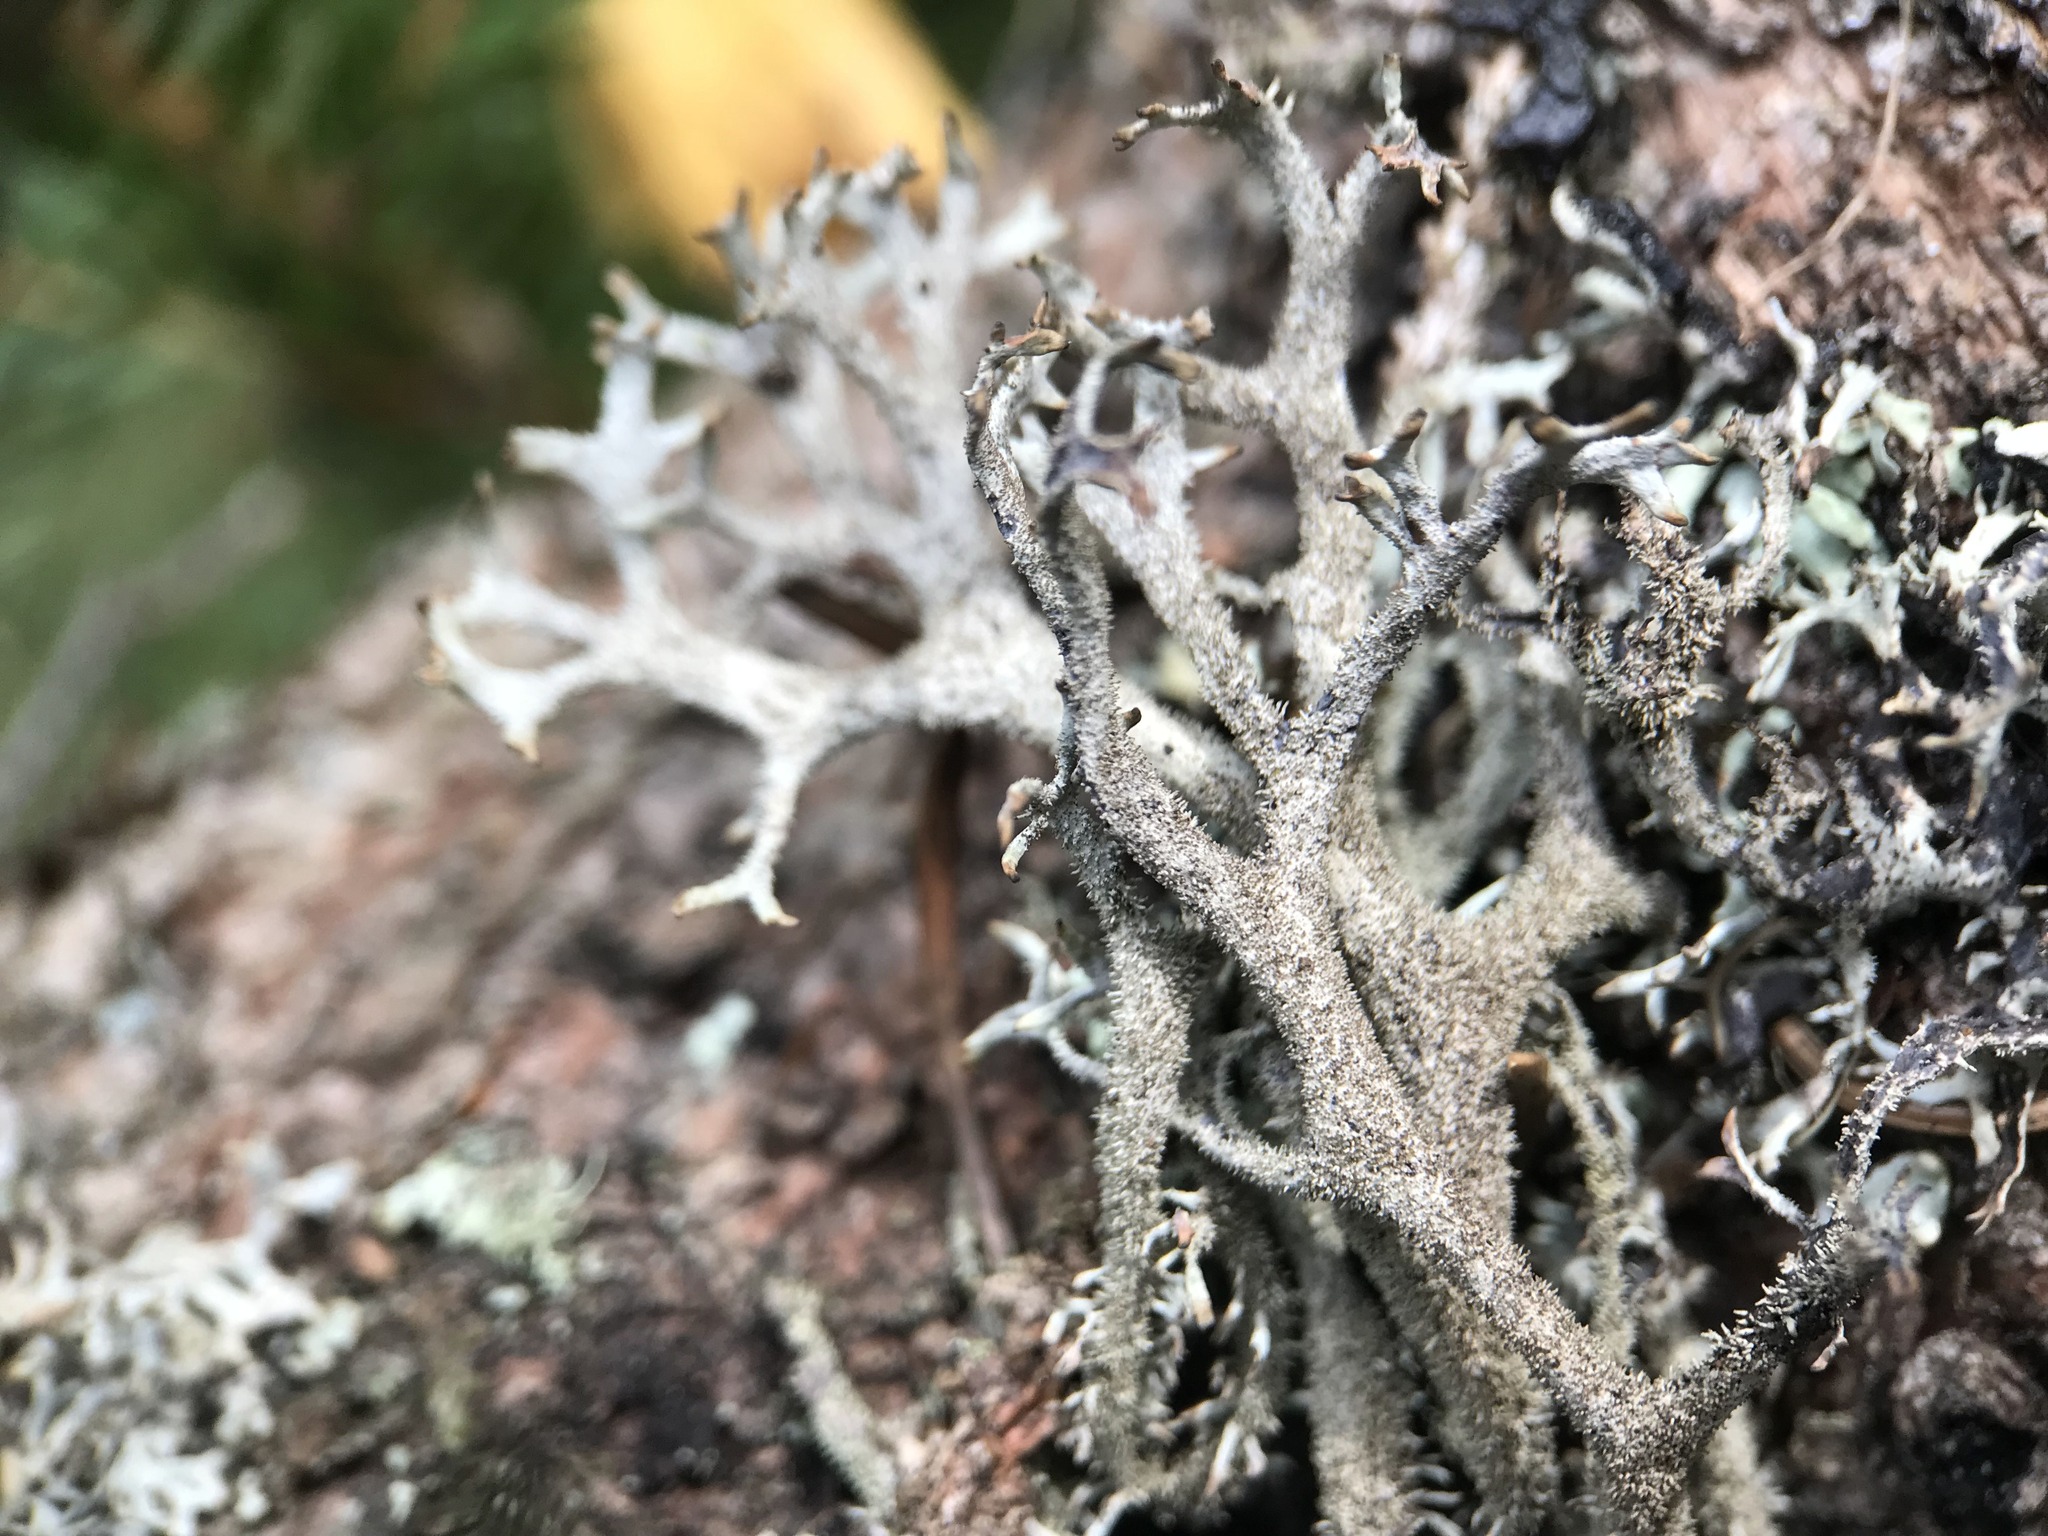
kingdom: Fungi
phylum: Ascomycota
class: Lecanoromycetes
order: Lecanorales
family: Parmeliaceae
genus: Pseudevernia
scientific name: Pseudevernia furfuracea
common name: Tree moss
